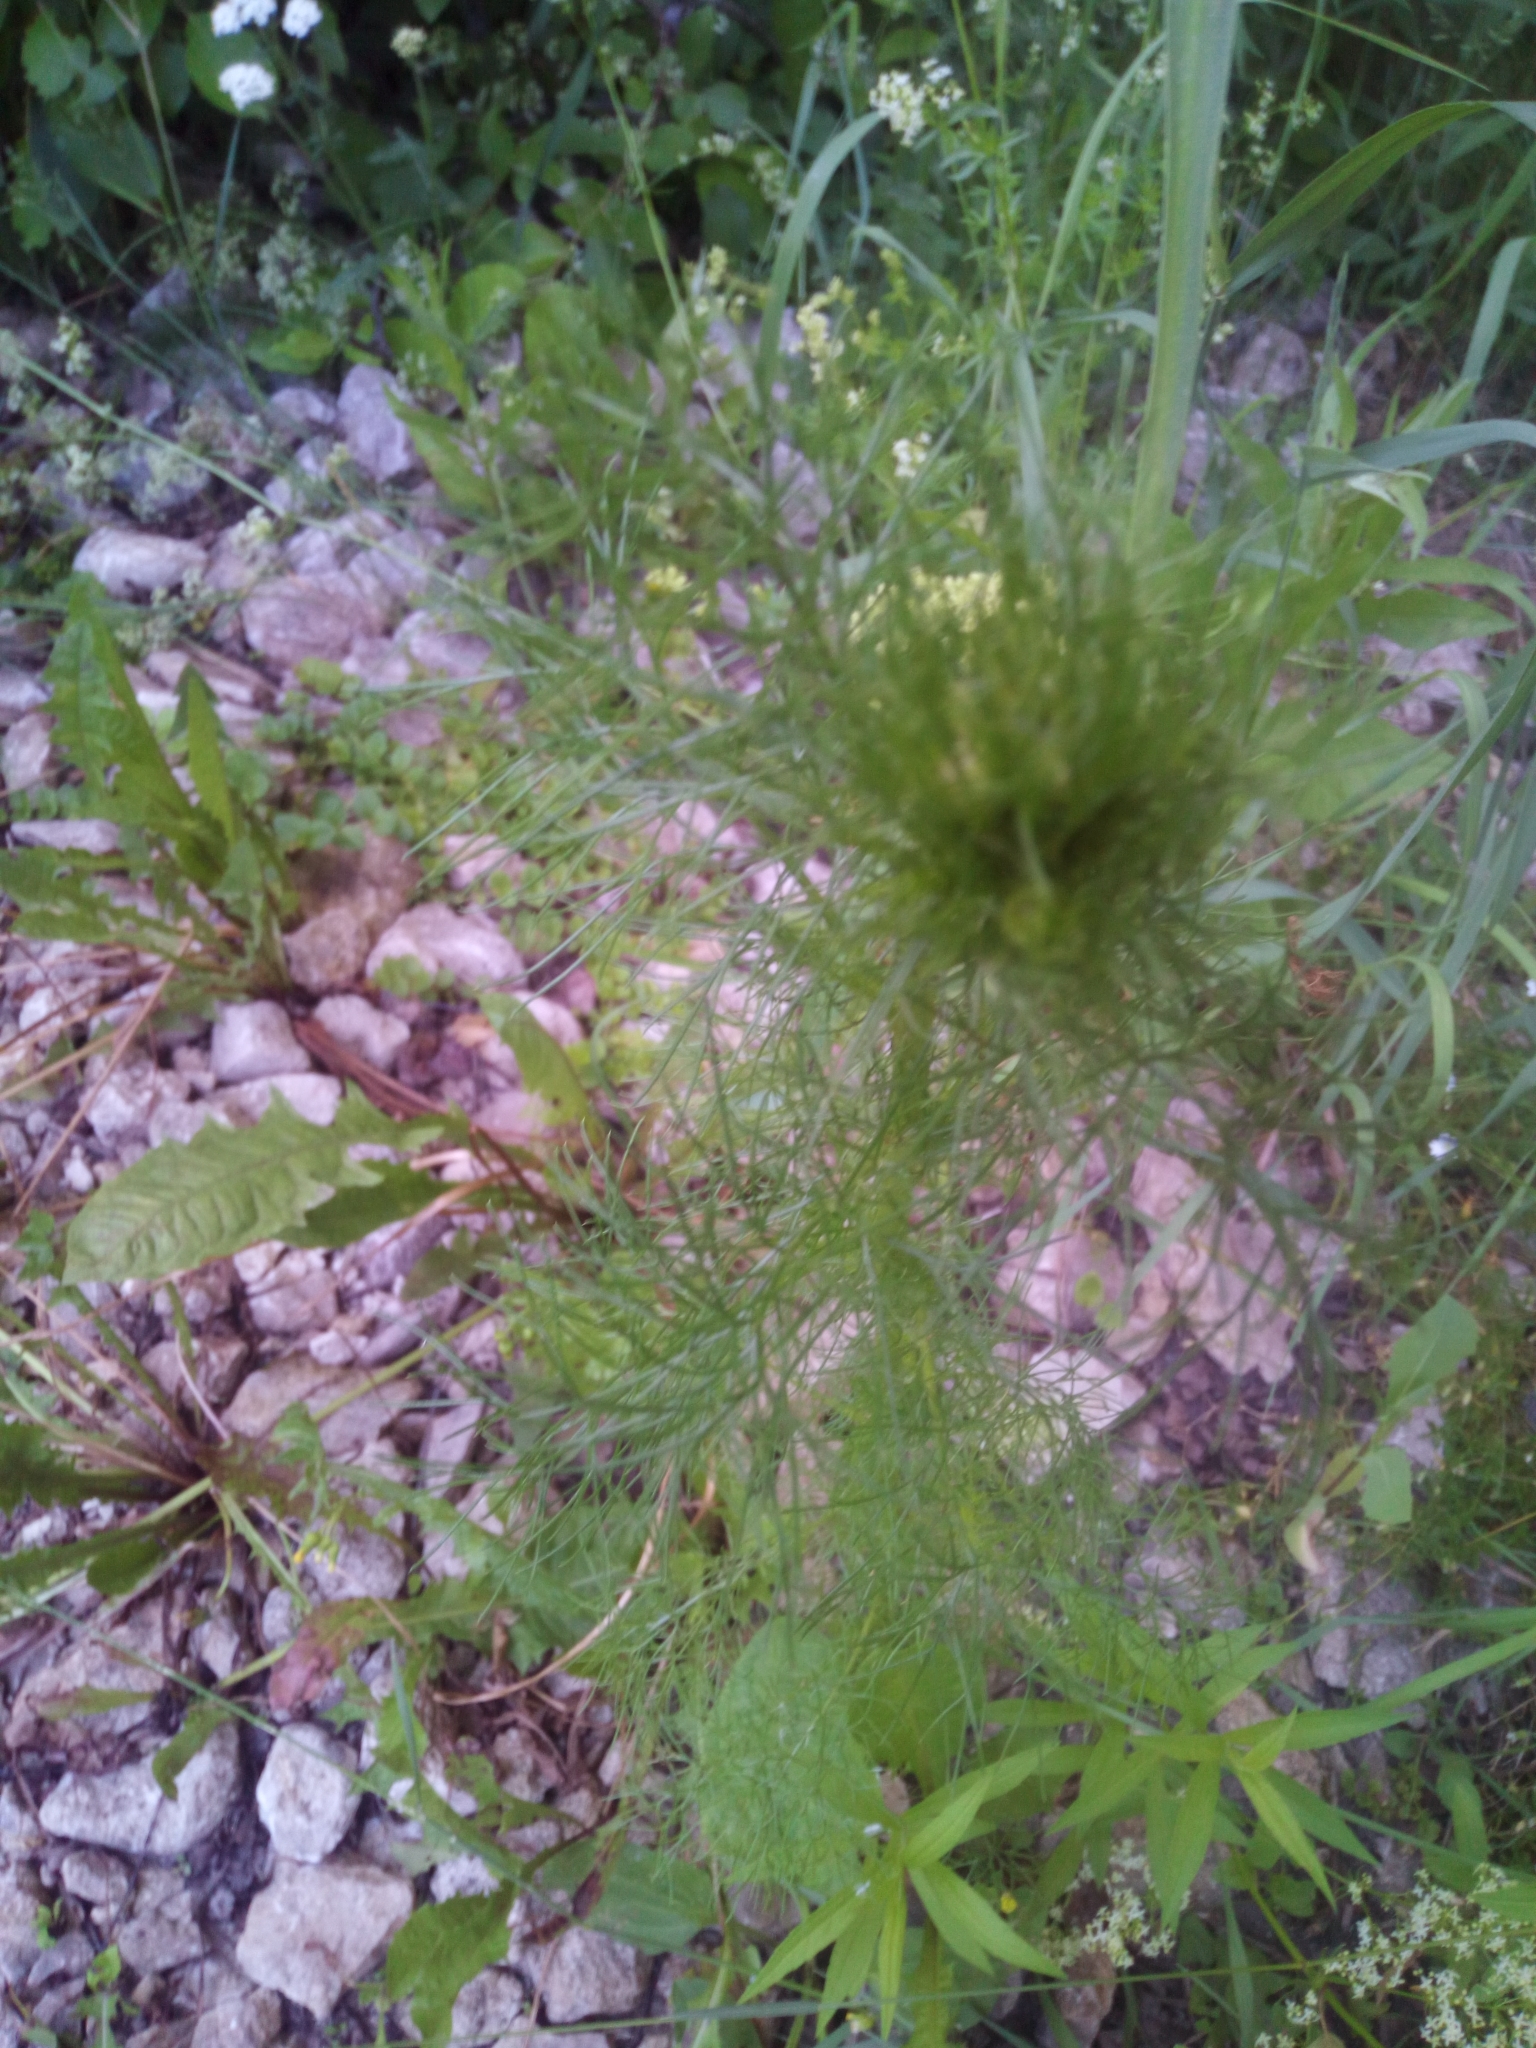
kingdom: Plantae
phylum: Tracheophyta
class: Magnoliopsida
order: Asterales
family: Asteraceae
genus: Tripleurospermum
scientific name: Tripleurospermum inodorum
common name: Scentless mayweed
